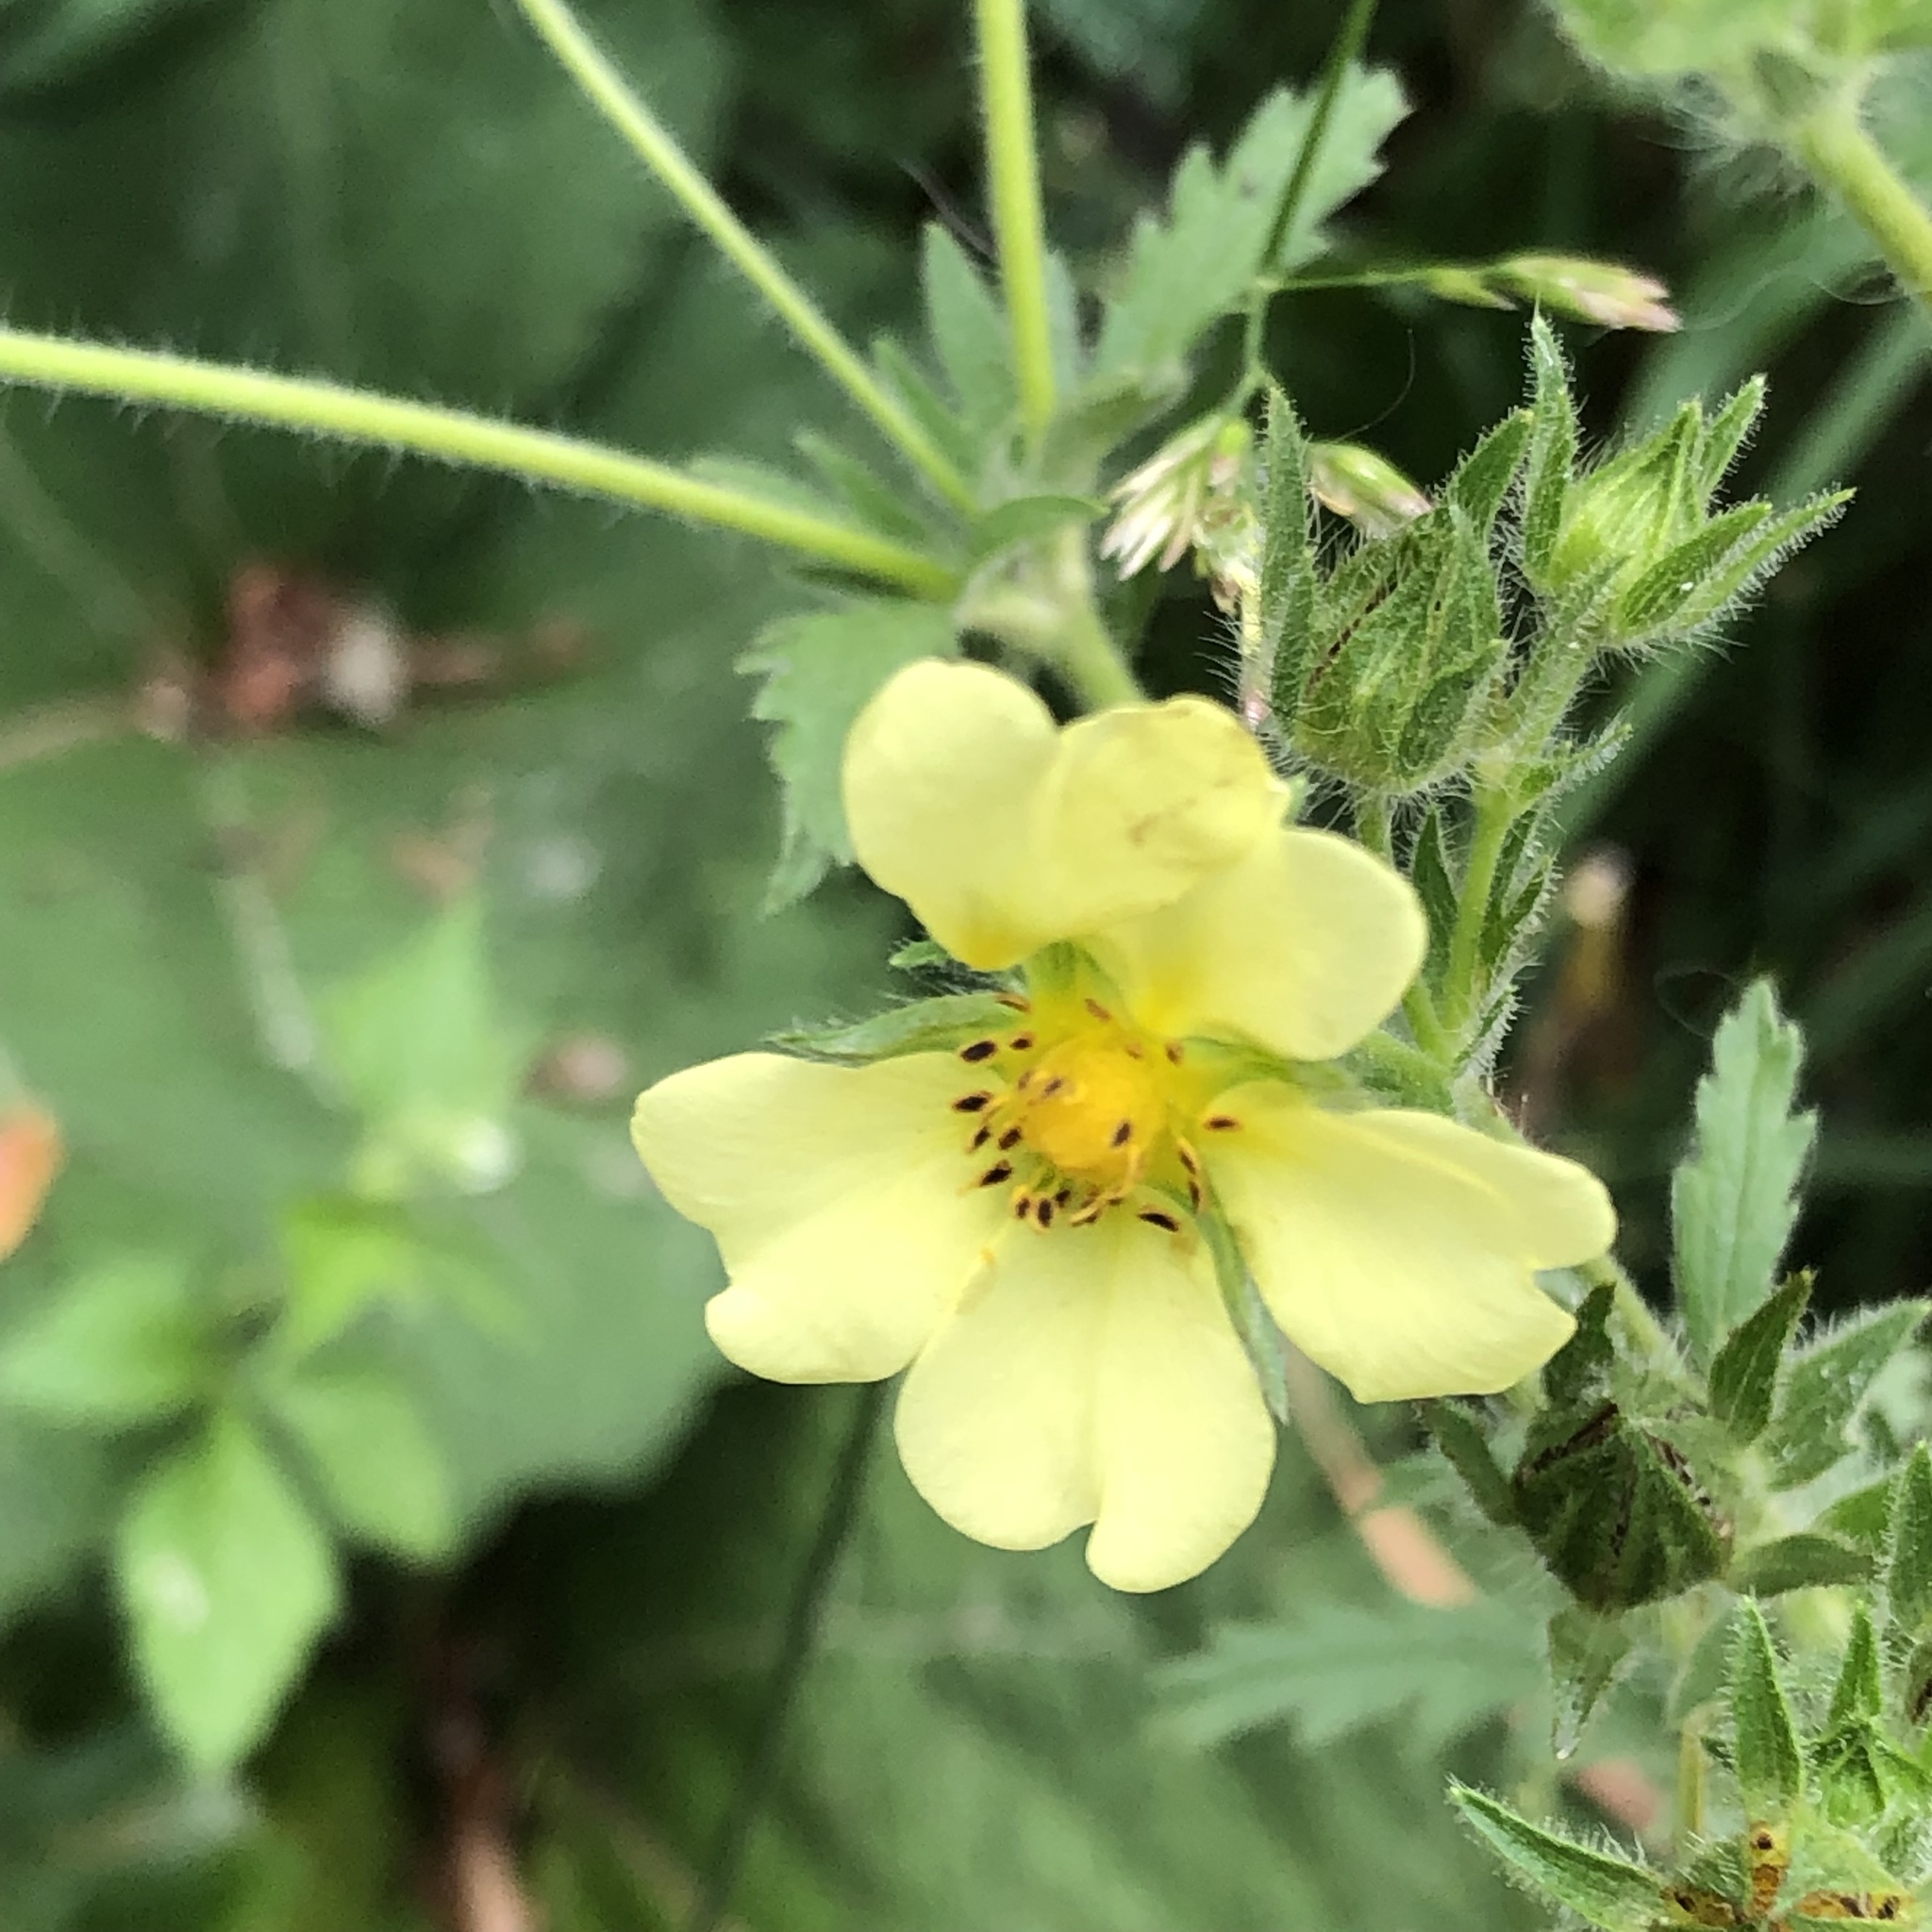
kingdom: Plantae
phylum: Tracheophyta
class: Magnoliopsida
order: Rosales
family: Rosaceae
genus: Potentilla
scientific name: Potentilla recta
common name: Sulphur cinquefoil
